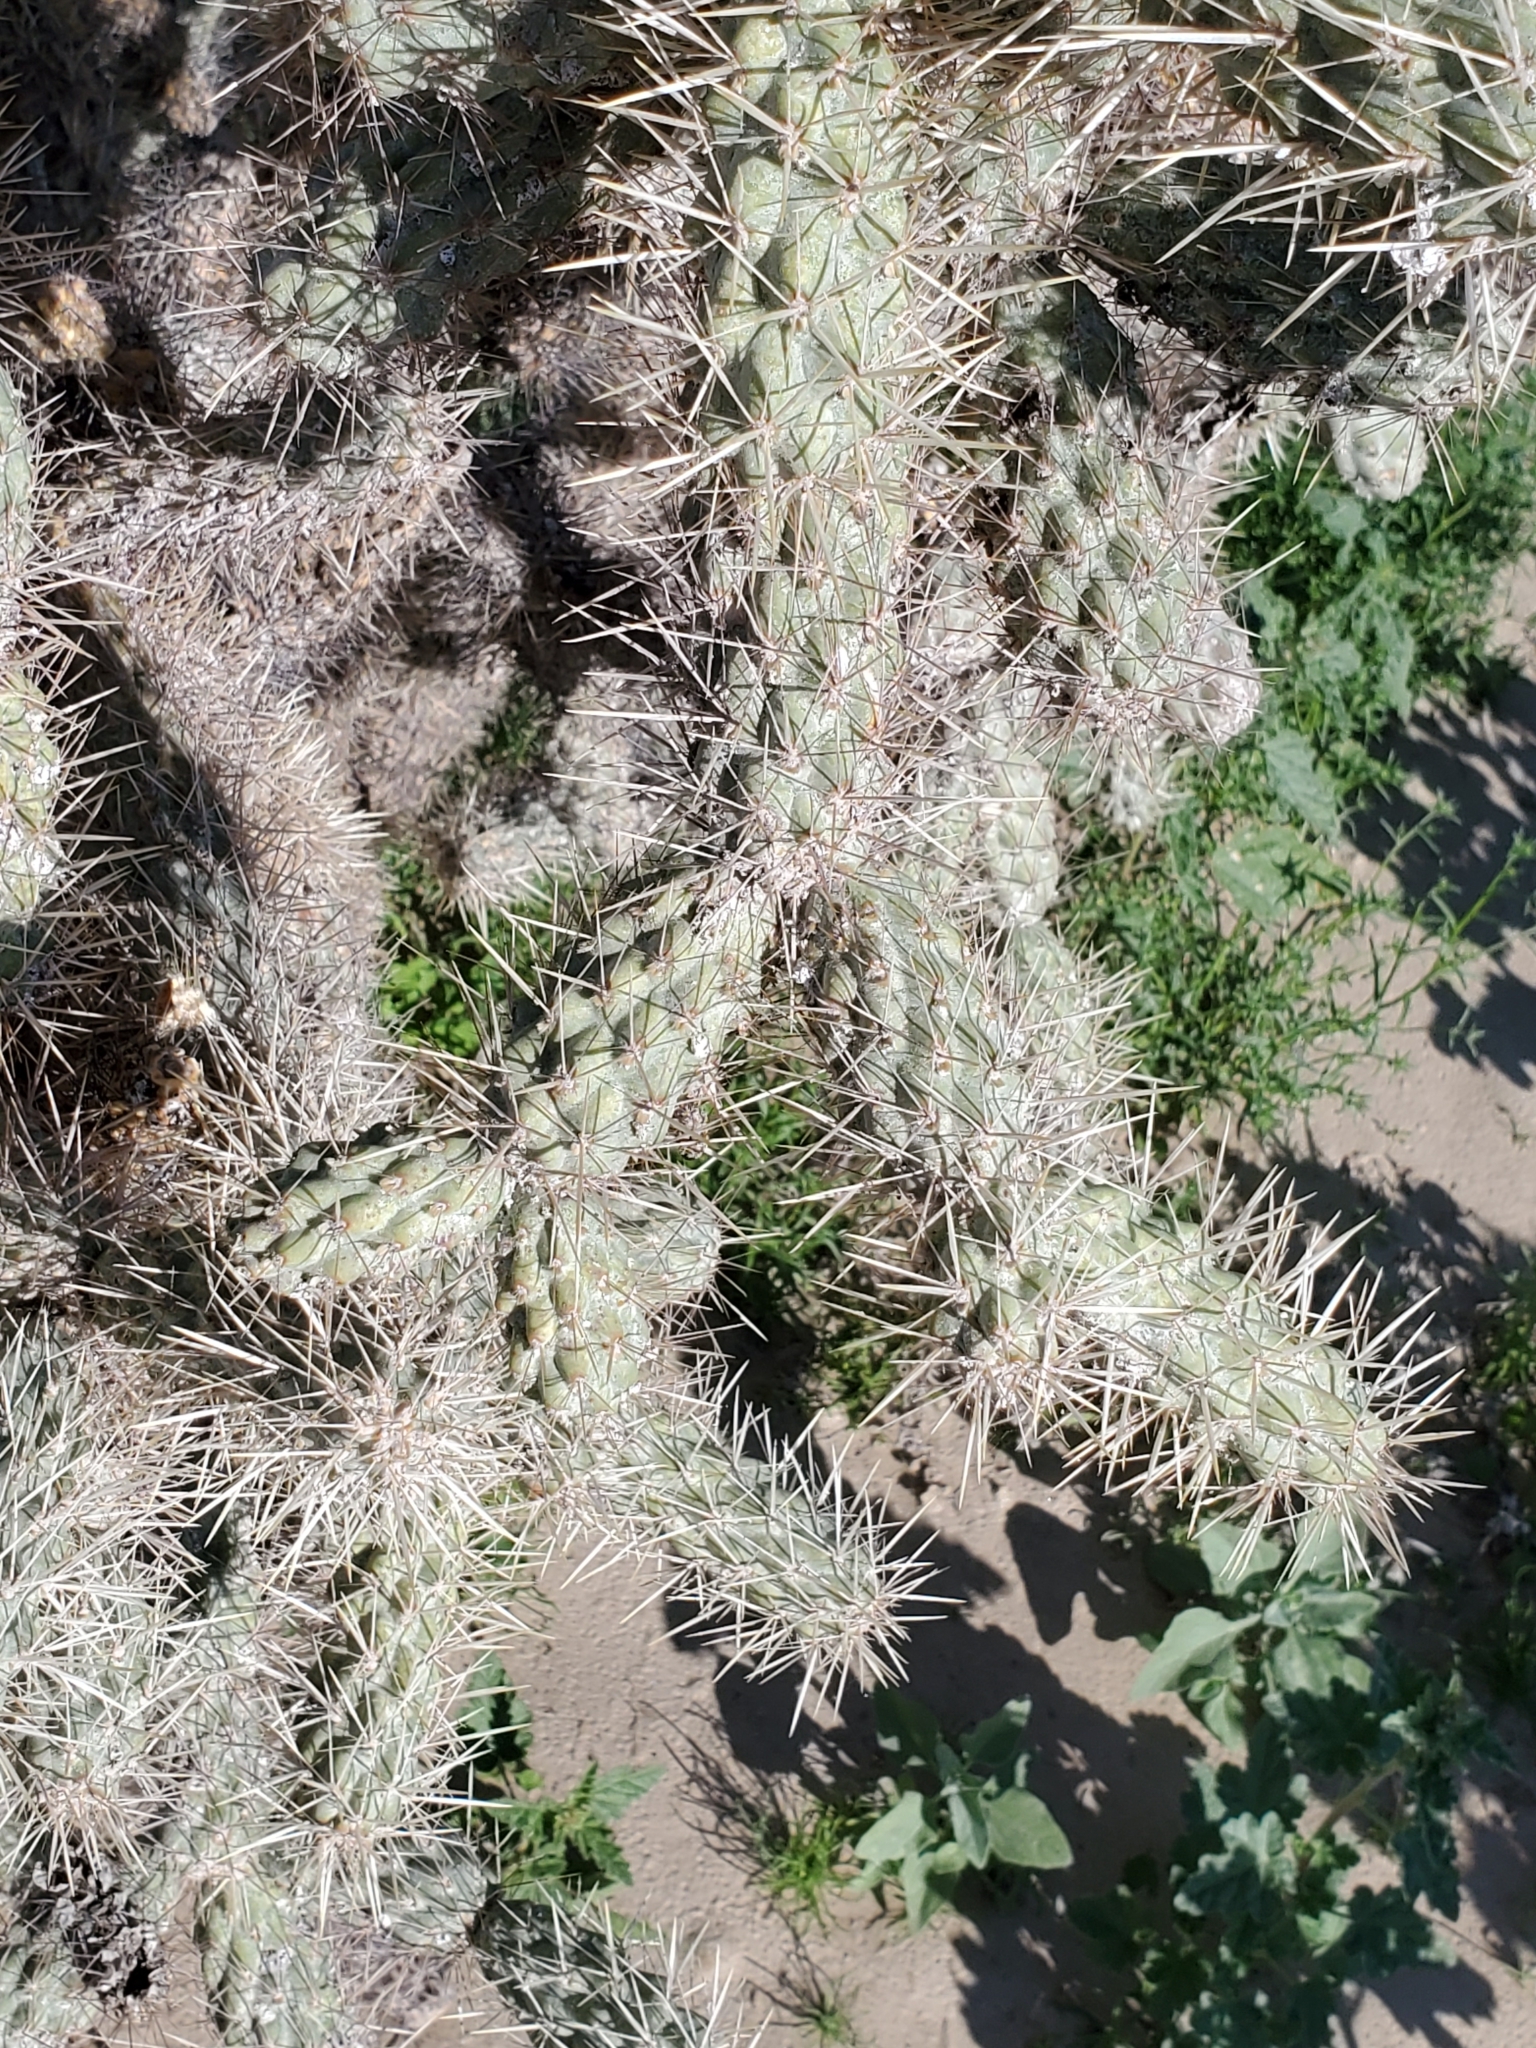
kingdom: Plantae
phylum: Tracheophyta
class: Magnoliopsida
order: Caryophyllales
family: Cactaceae
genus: Cylindropuntia
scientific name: Cylindropuntia munzii
